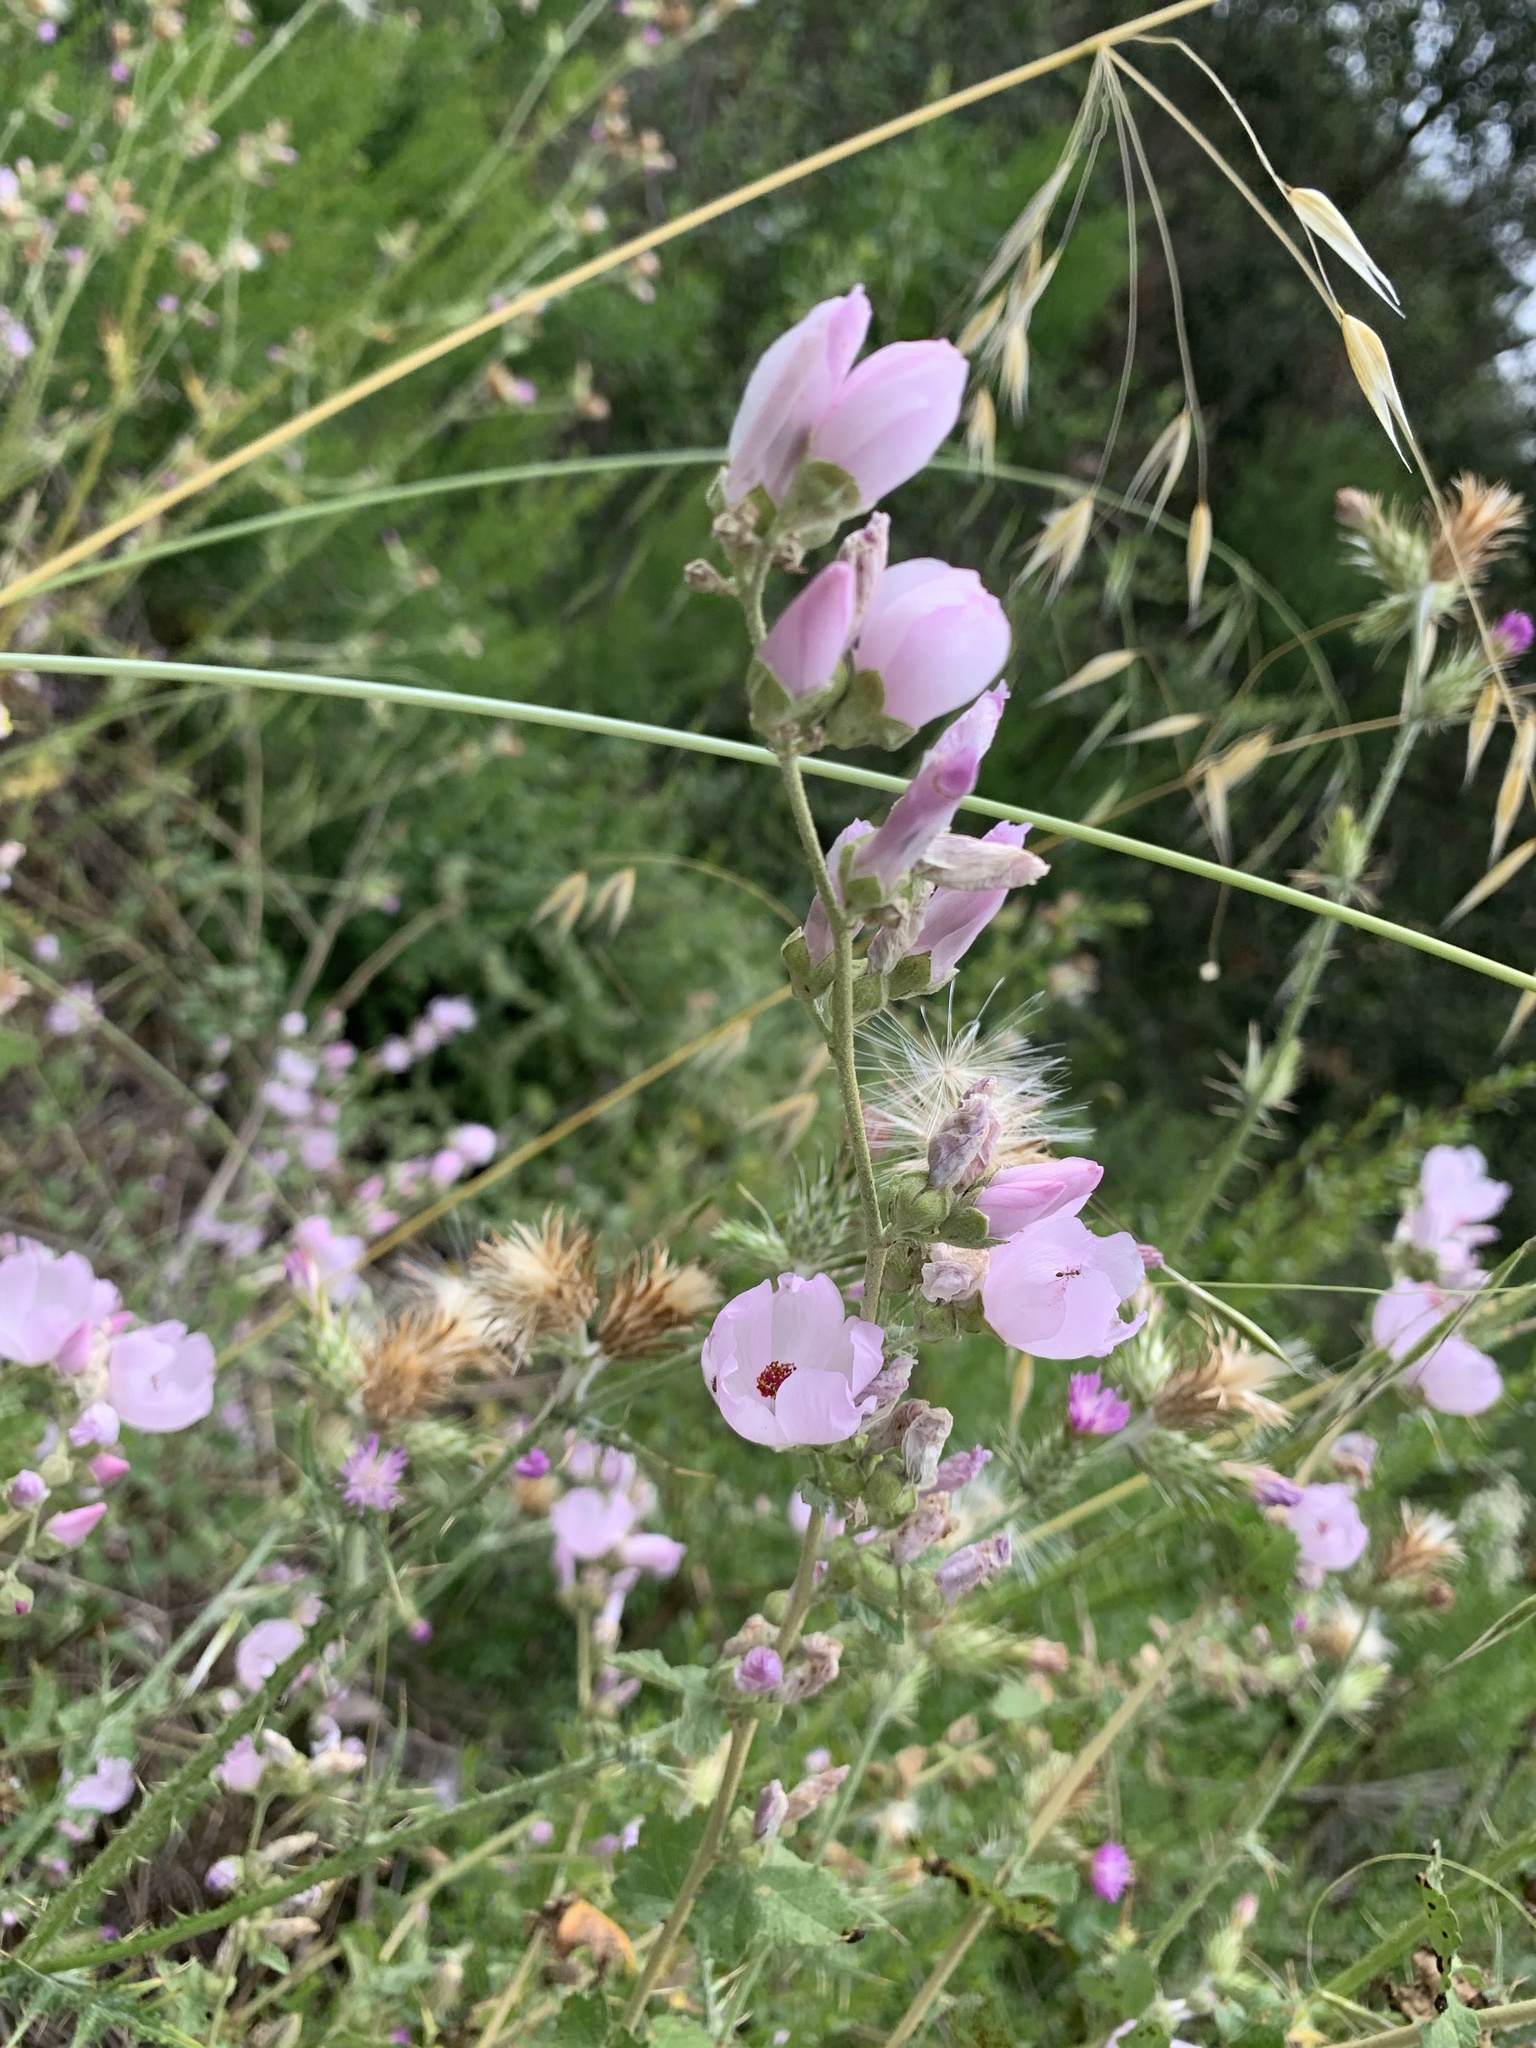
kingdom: Plantae
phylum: Tracheophyta
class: Magnoliopsida
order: Malvales
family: Malvaceae
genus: Malacothamnus
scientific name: Malacothamnus fasciculatus
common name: Sant cruz island bush-mallow
